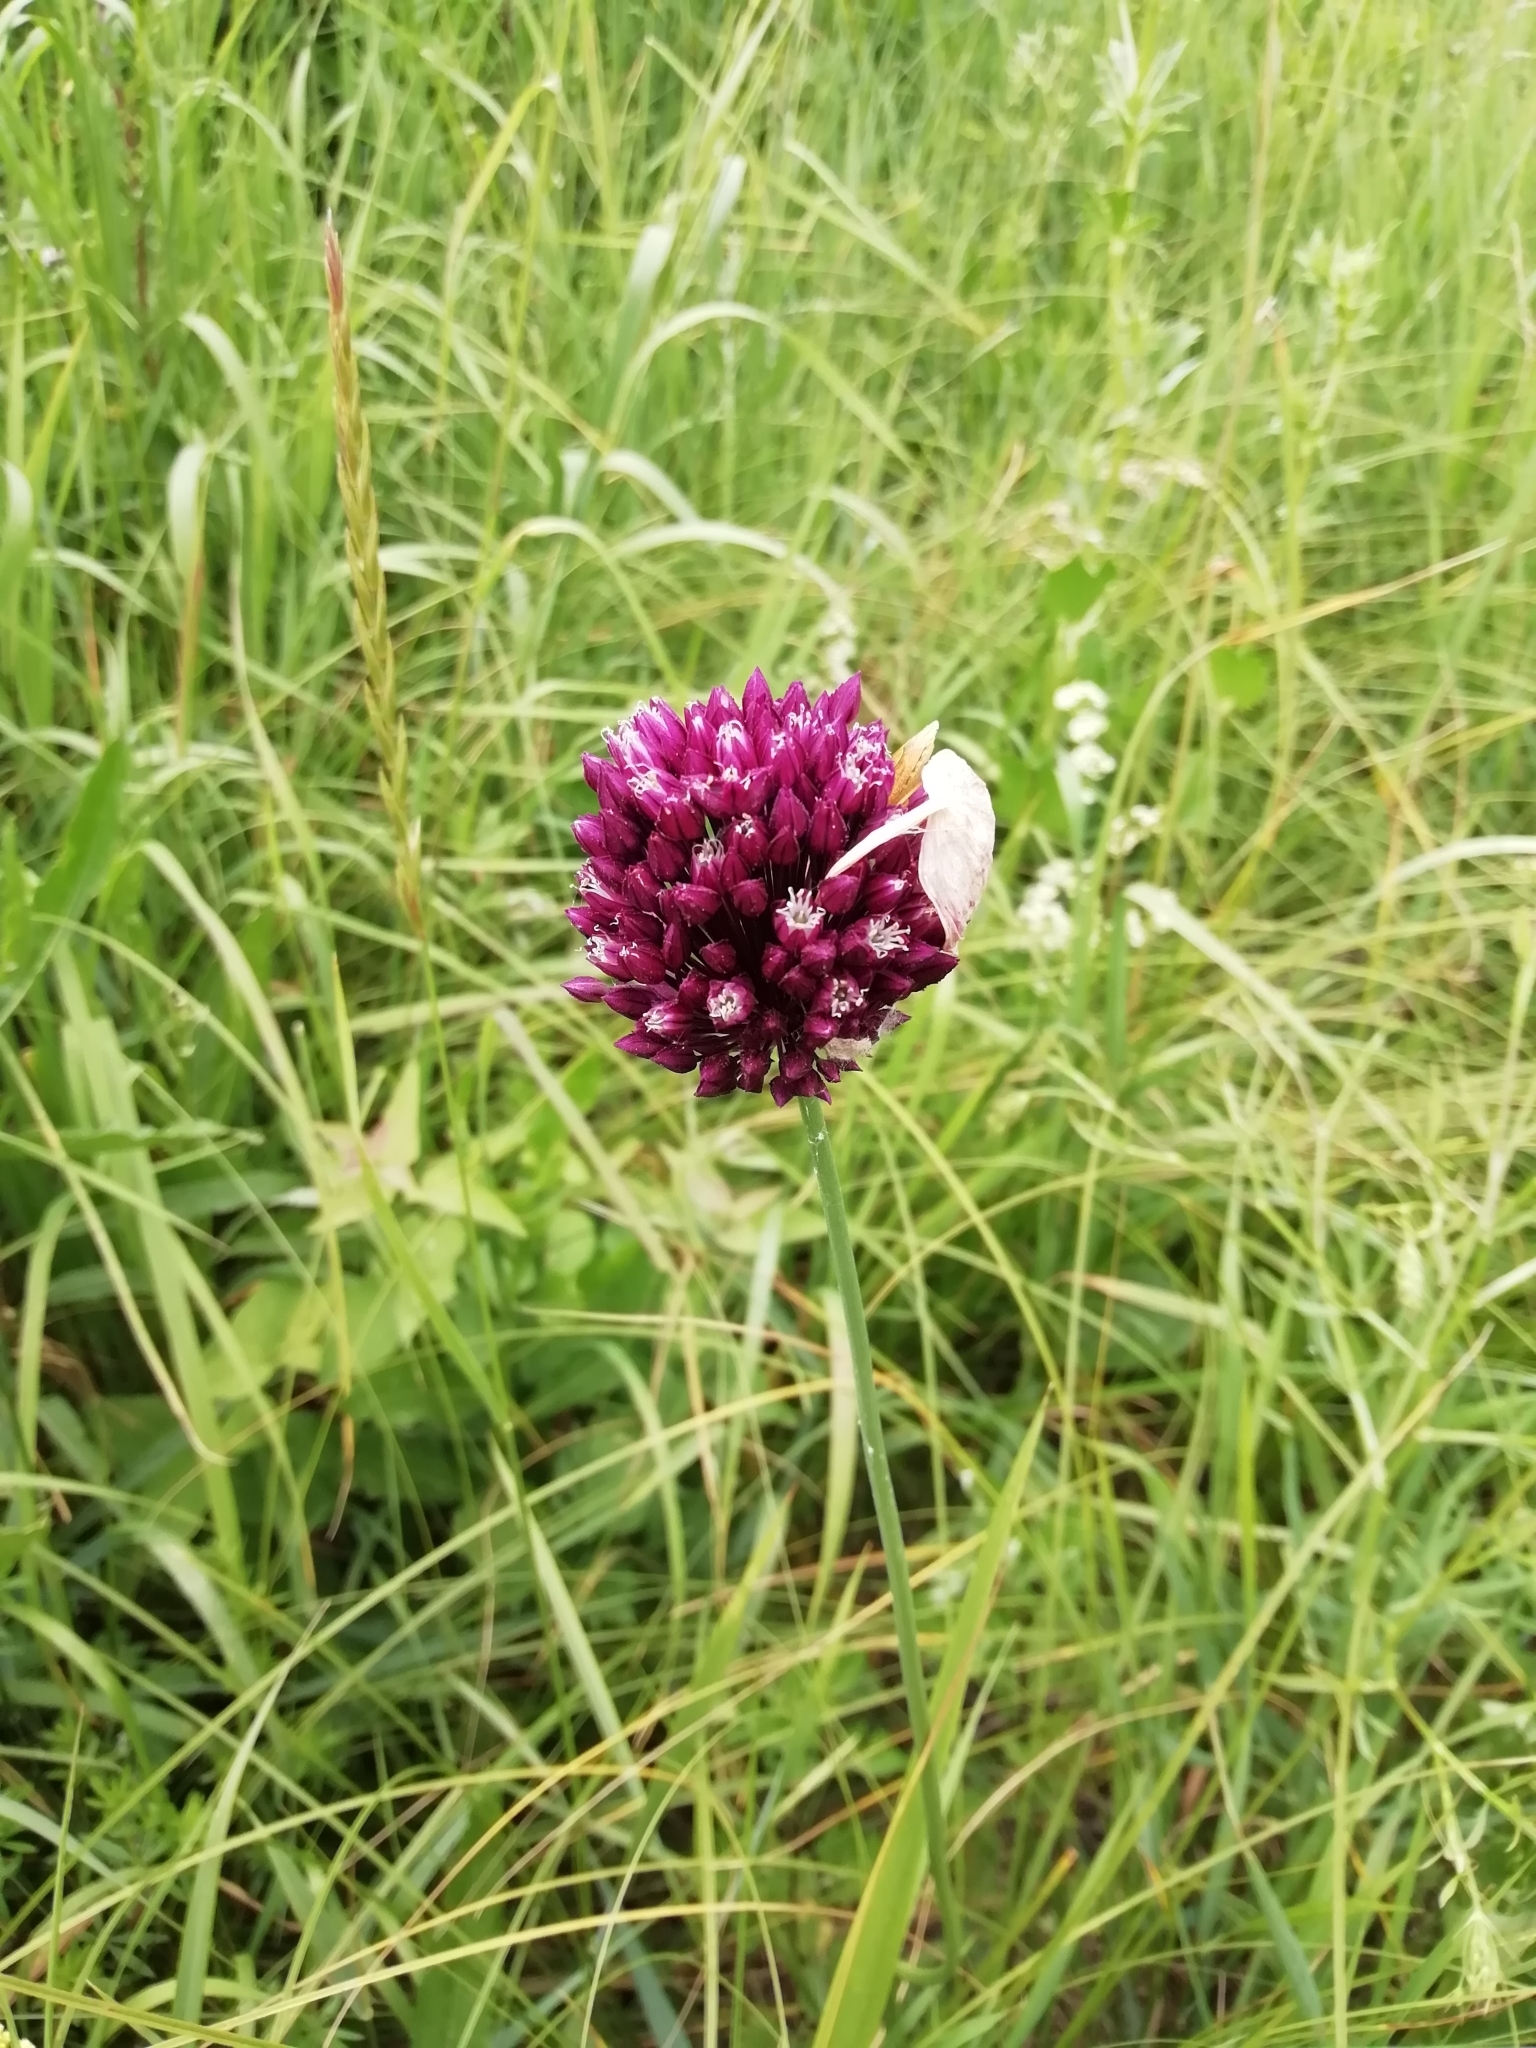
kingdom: Plantae
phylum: Tracheophyta
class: Liliopsida
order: Asparagales
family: Amaryllidaceae
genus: Allium
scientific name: Allium rotundum
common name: Sand leek
